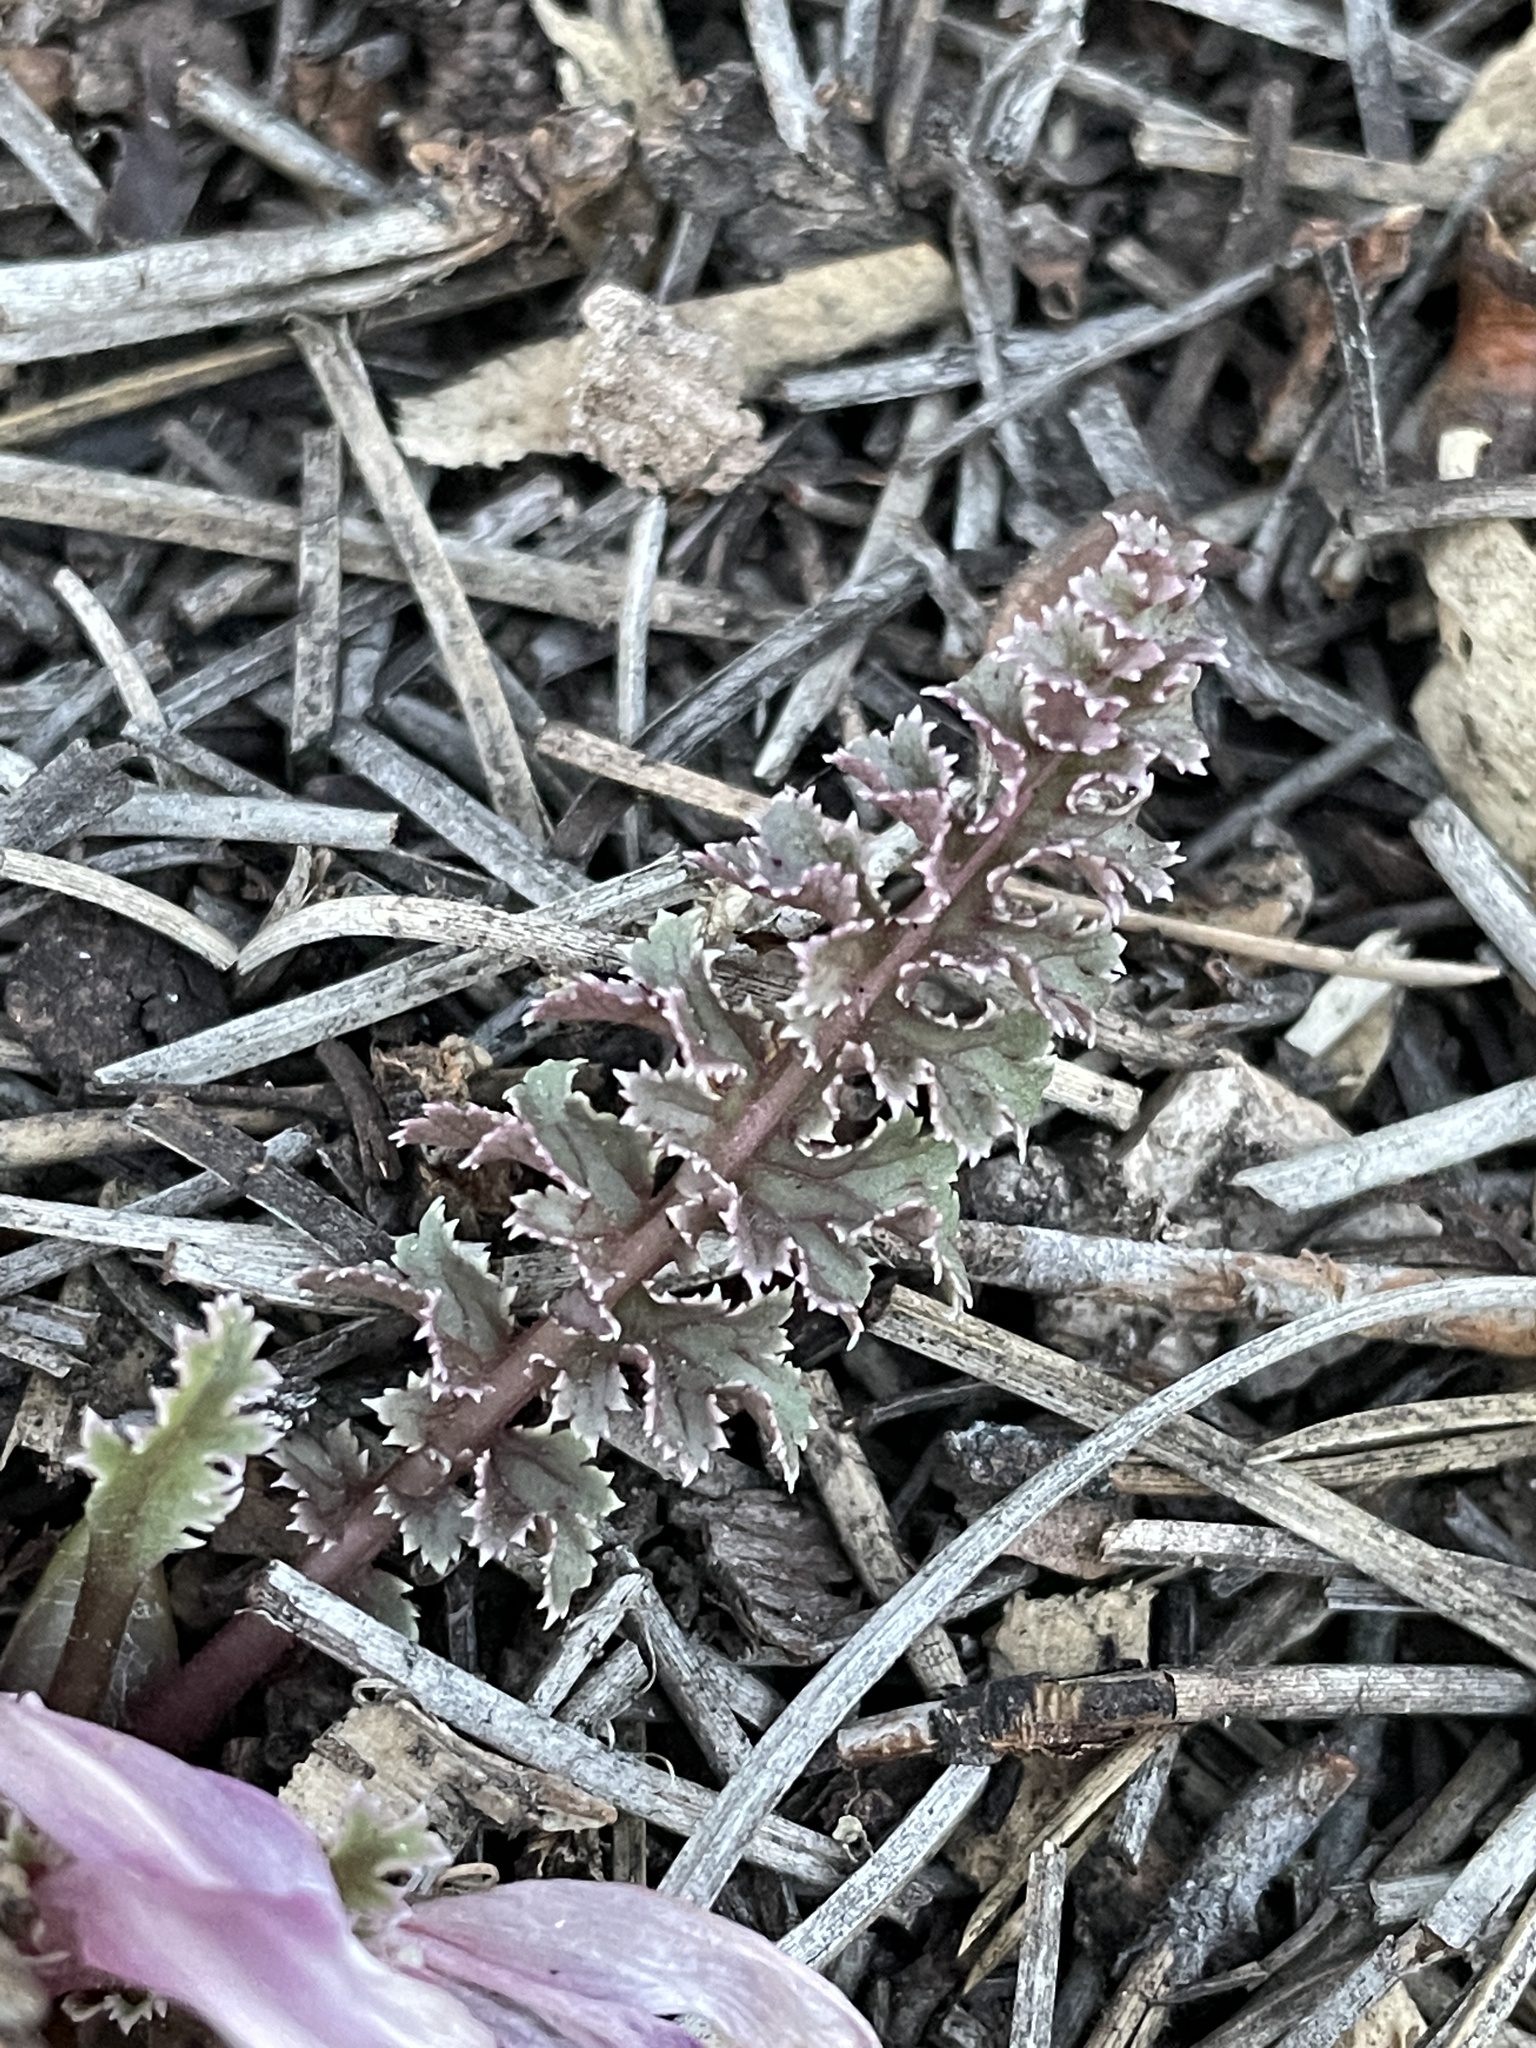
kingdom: Plantae
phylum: Tracheophyta
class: Magnoliopsida
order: Lamiales
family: Orobanchaceae
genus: Pedicularis
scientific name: Pedicularis centranthera
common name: Dwarf lousewort
